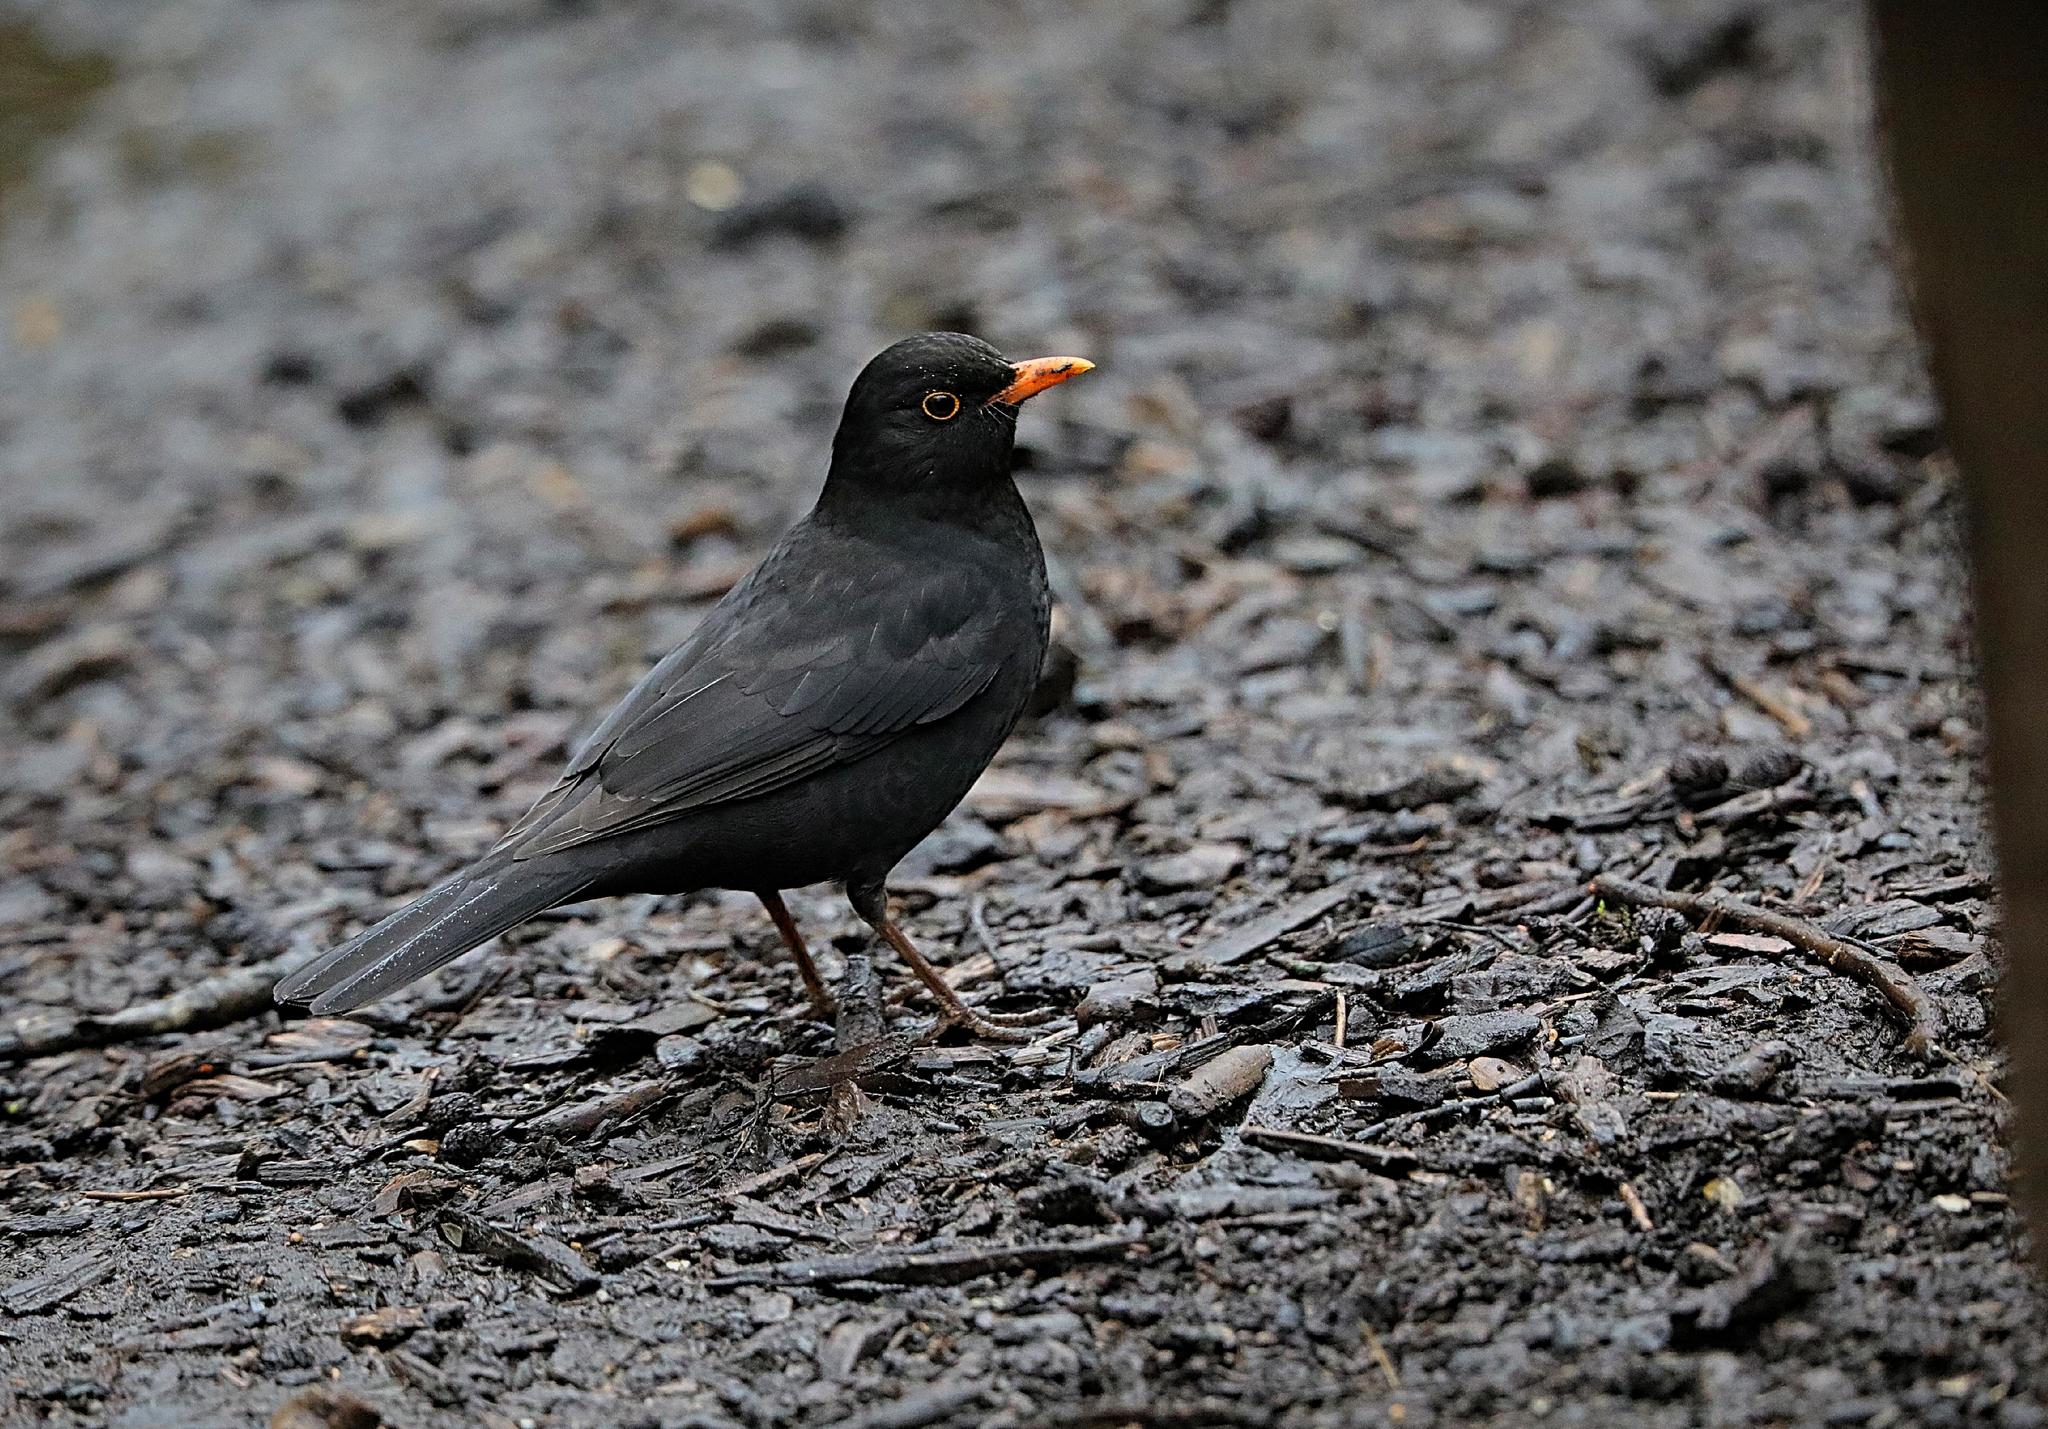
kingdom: Animalia
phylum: Chordata
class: Aves
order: Passeriformes
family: Turdidae
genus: Turdus
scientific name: Turdus merula
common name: Common blackbird
